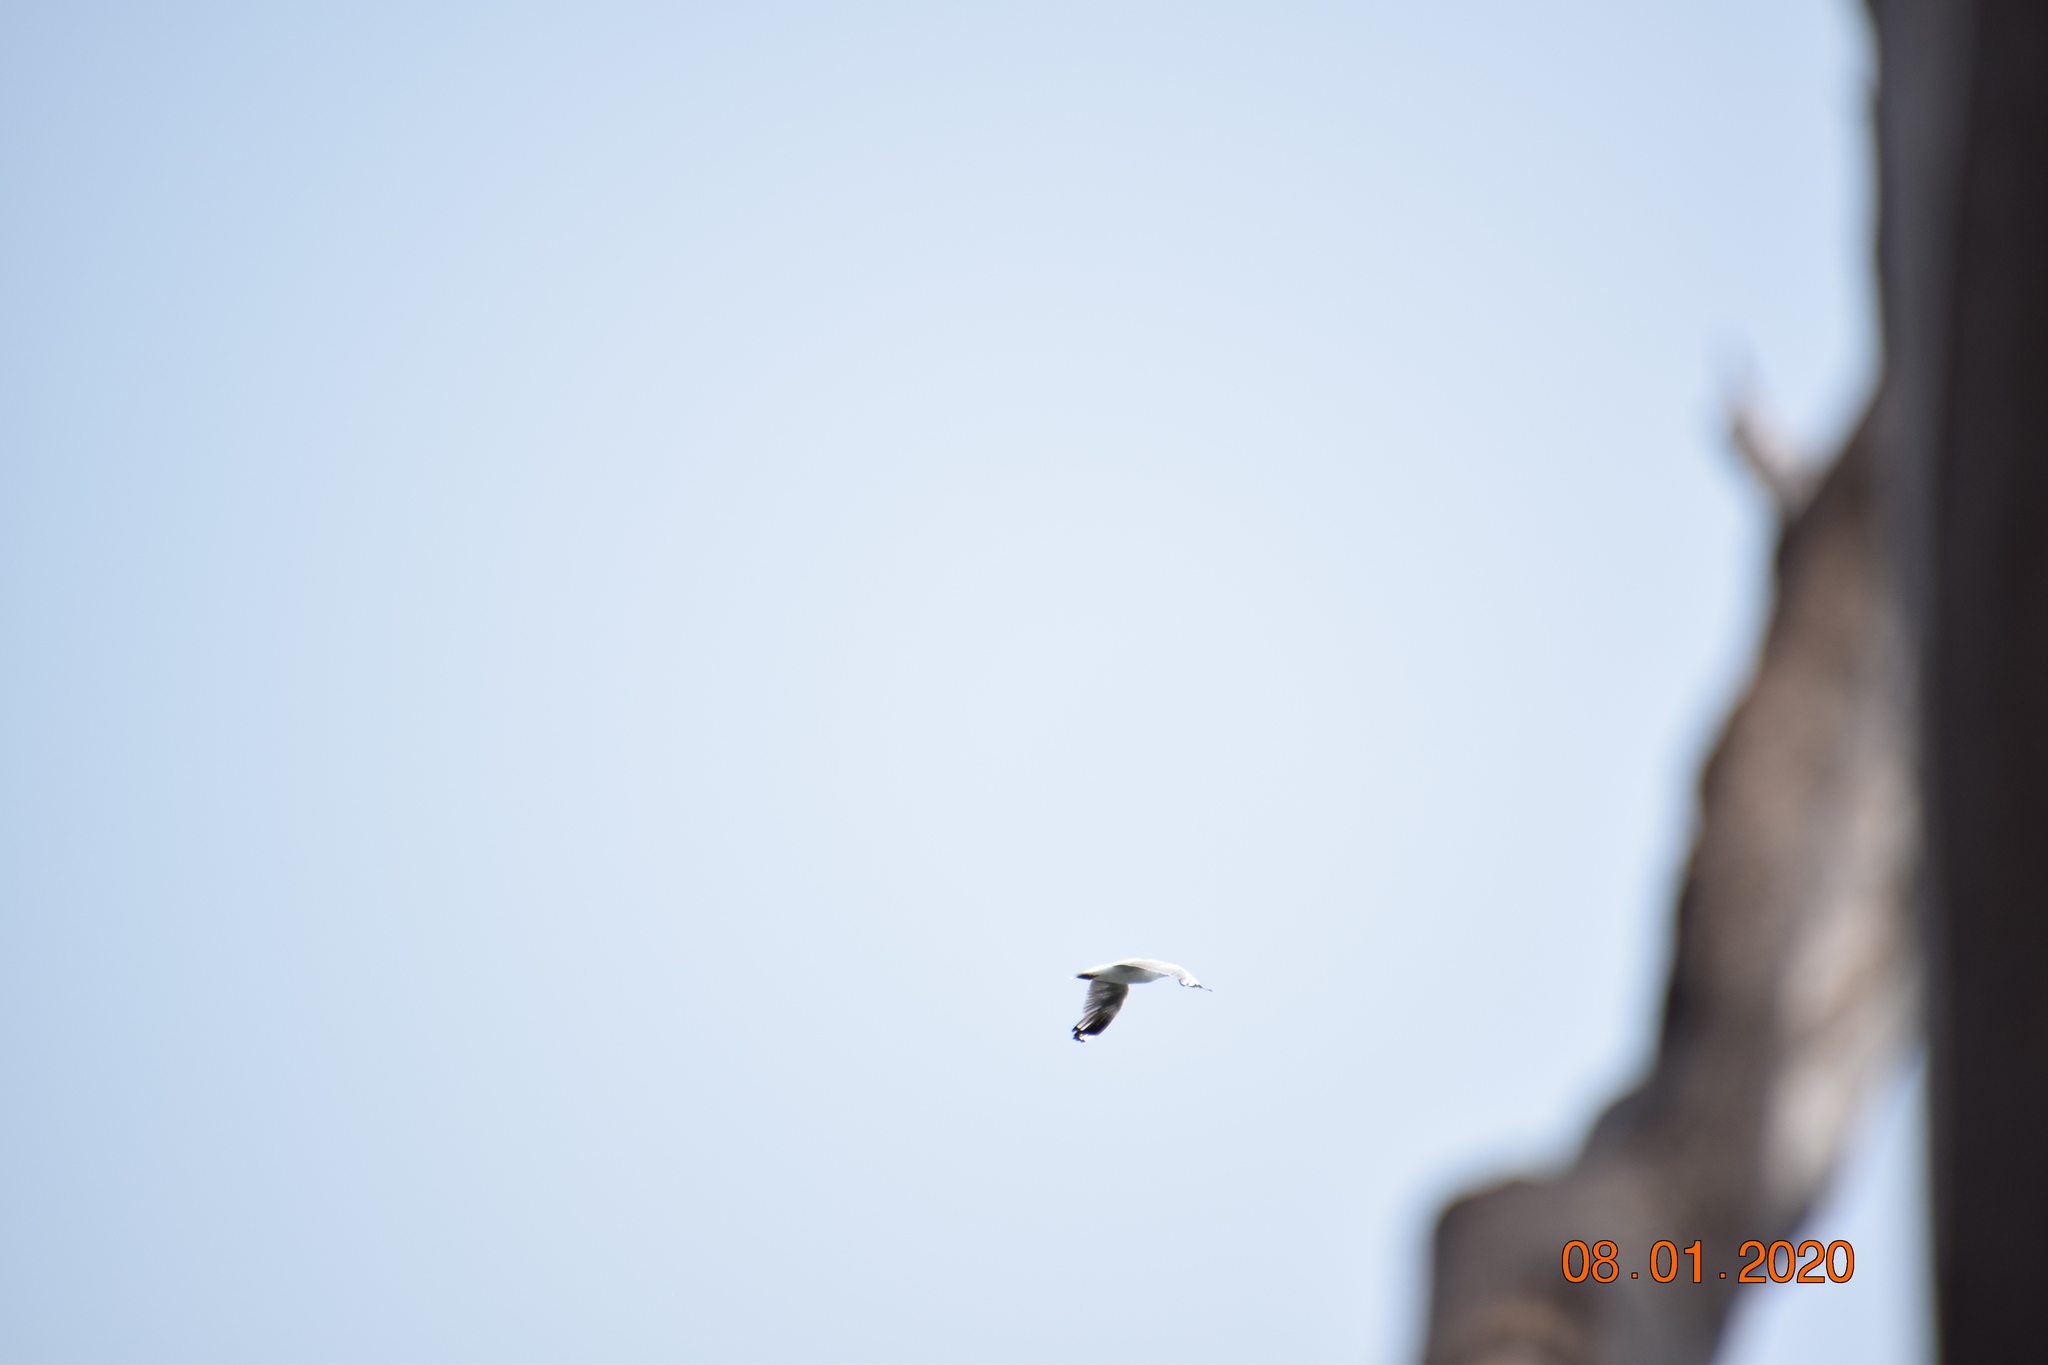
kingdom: Animalia
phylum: Chordata
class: Aves
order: Charadriiformes
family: Laridae
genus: Chroicocephalus
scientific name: Chroicocephalus novaehollandiae
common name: Silver gull
